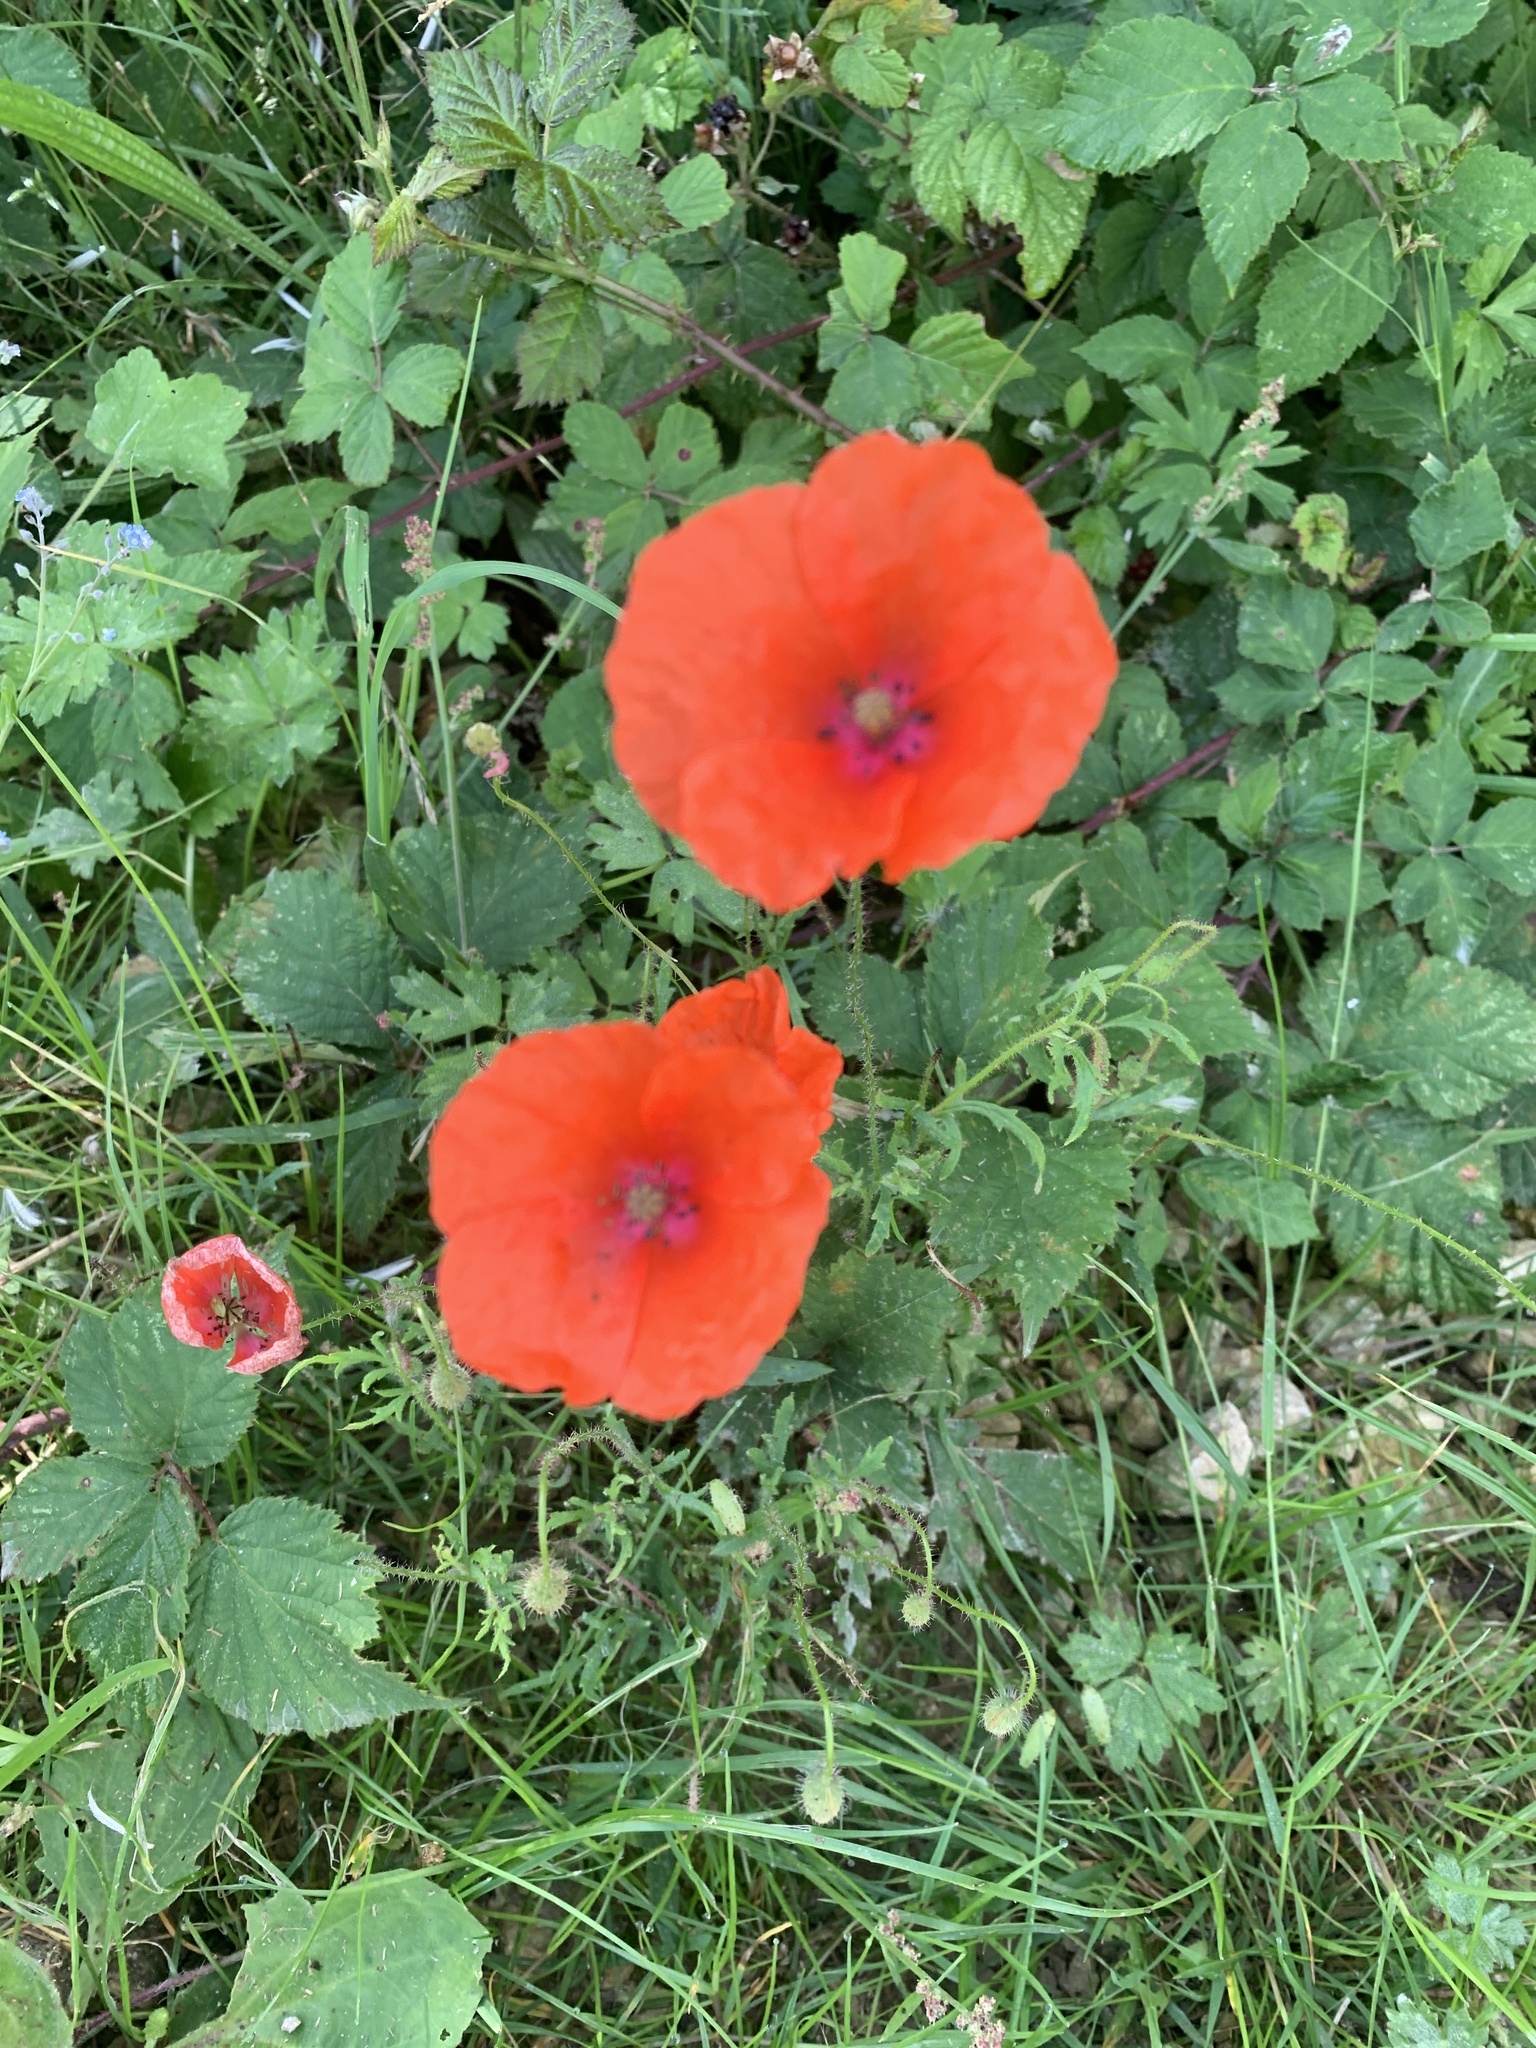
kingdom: Plantae
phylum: Tracheophyta
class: Magnoliopsida
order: Ranunculales
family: Papaveraceae
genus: Papaver
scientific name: Papaver rhoeas
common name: Corn poppy
